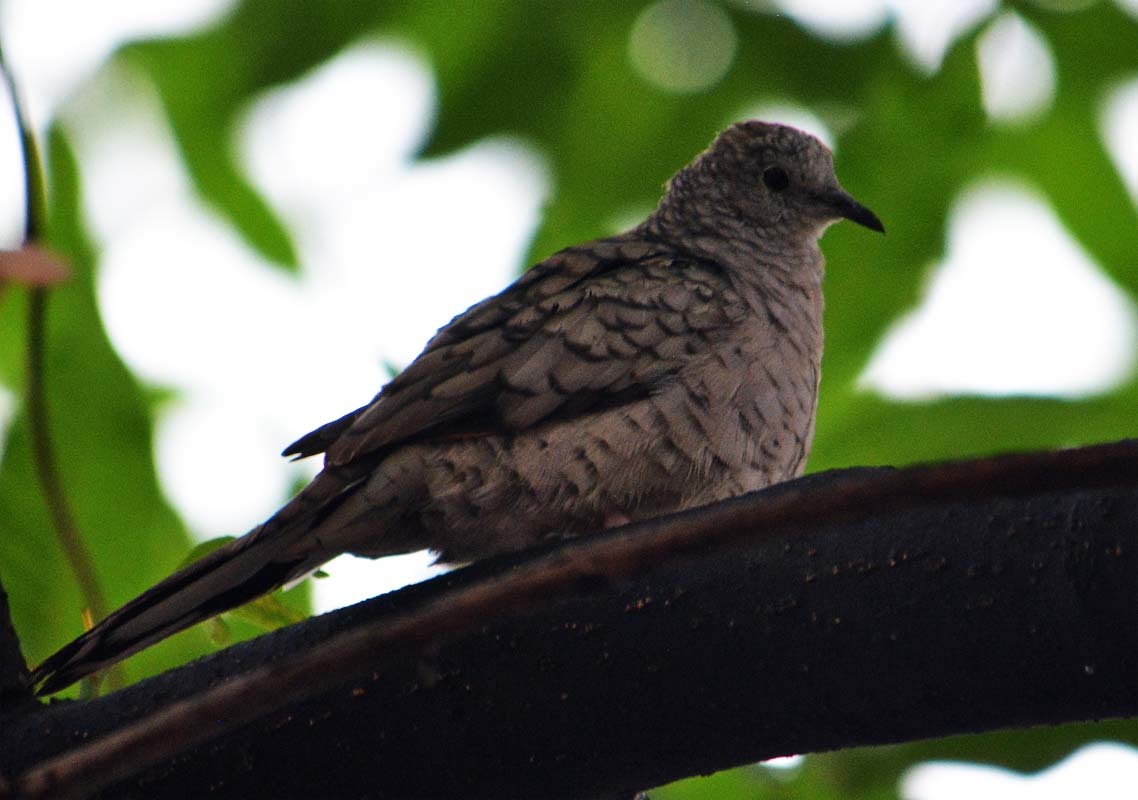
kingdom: Animalia
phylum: Chordata
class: Aves
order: Columbiformes
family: Columbidae
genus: Columbina
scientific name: Columbina inca
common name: Inca dove
